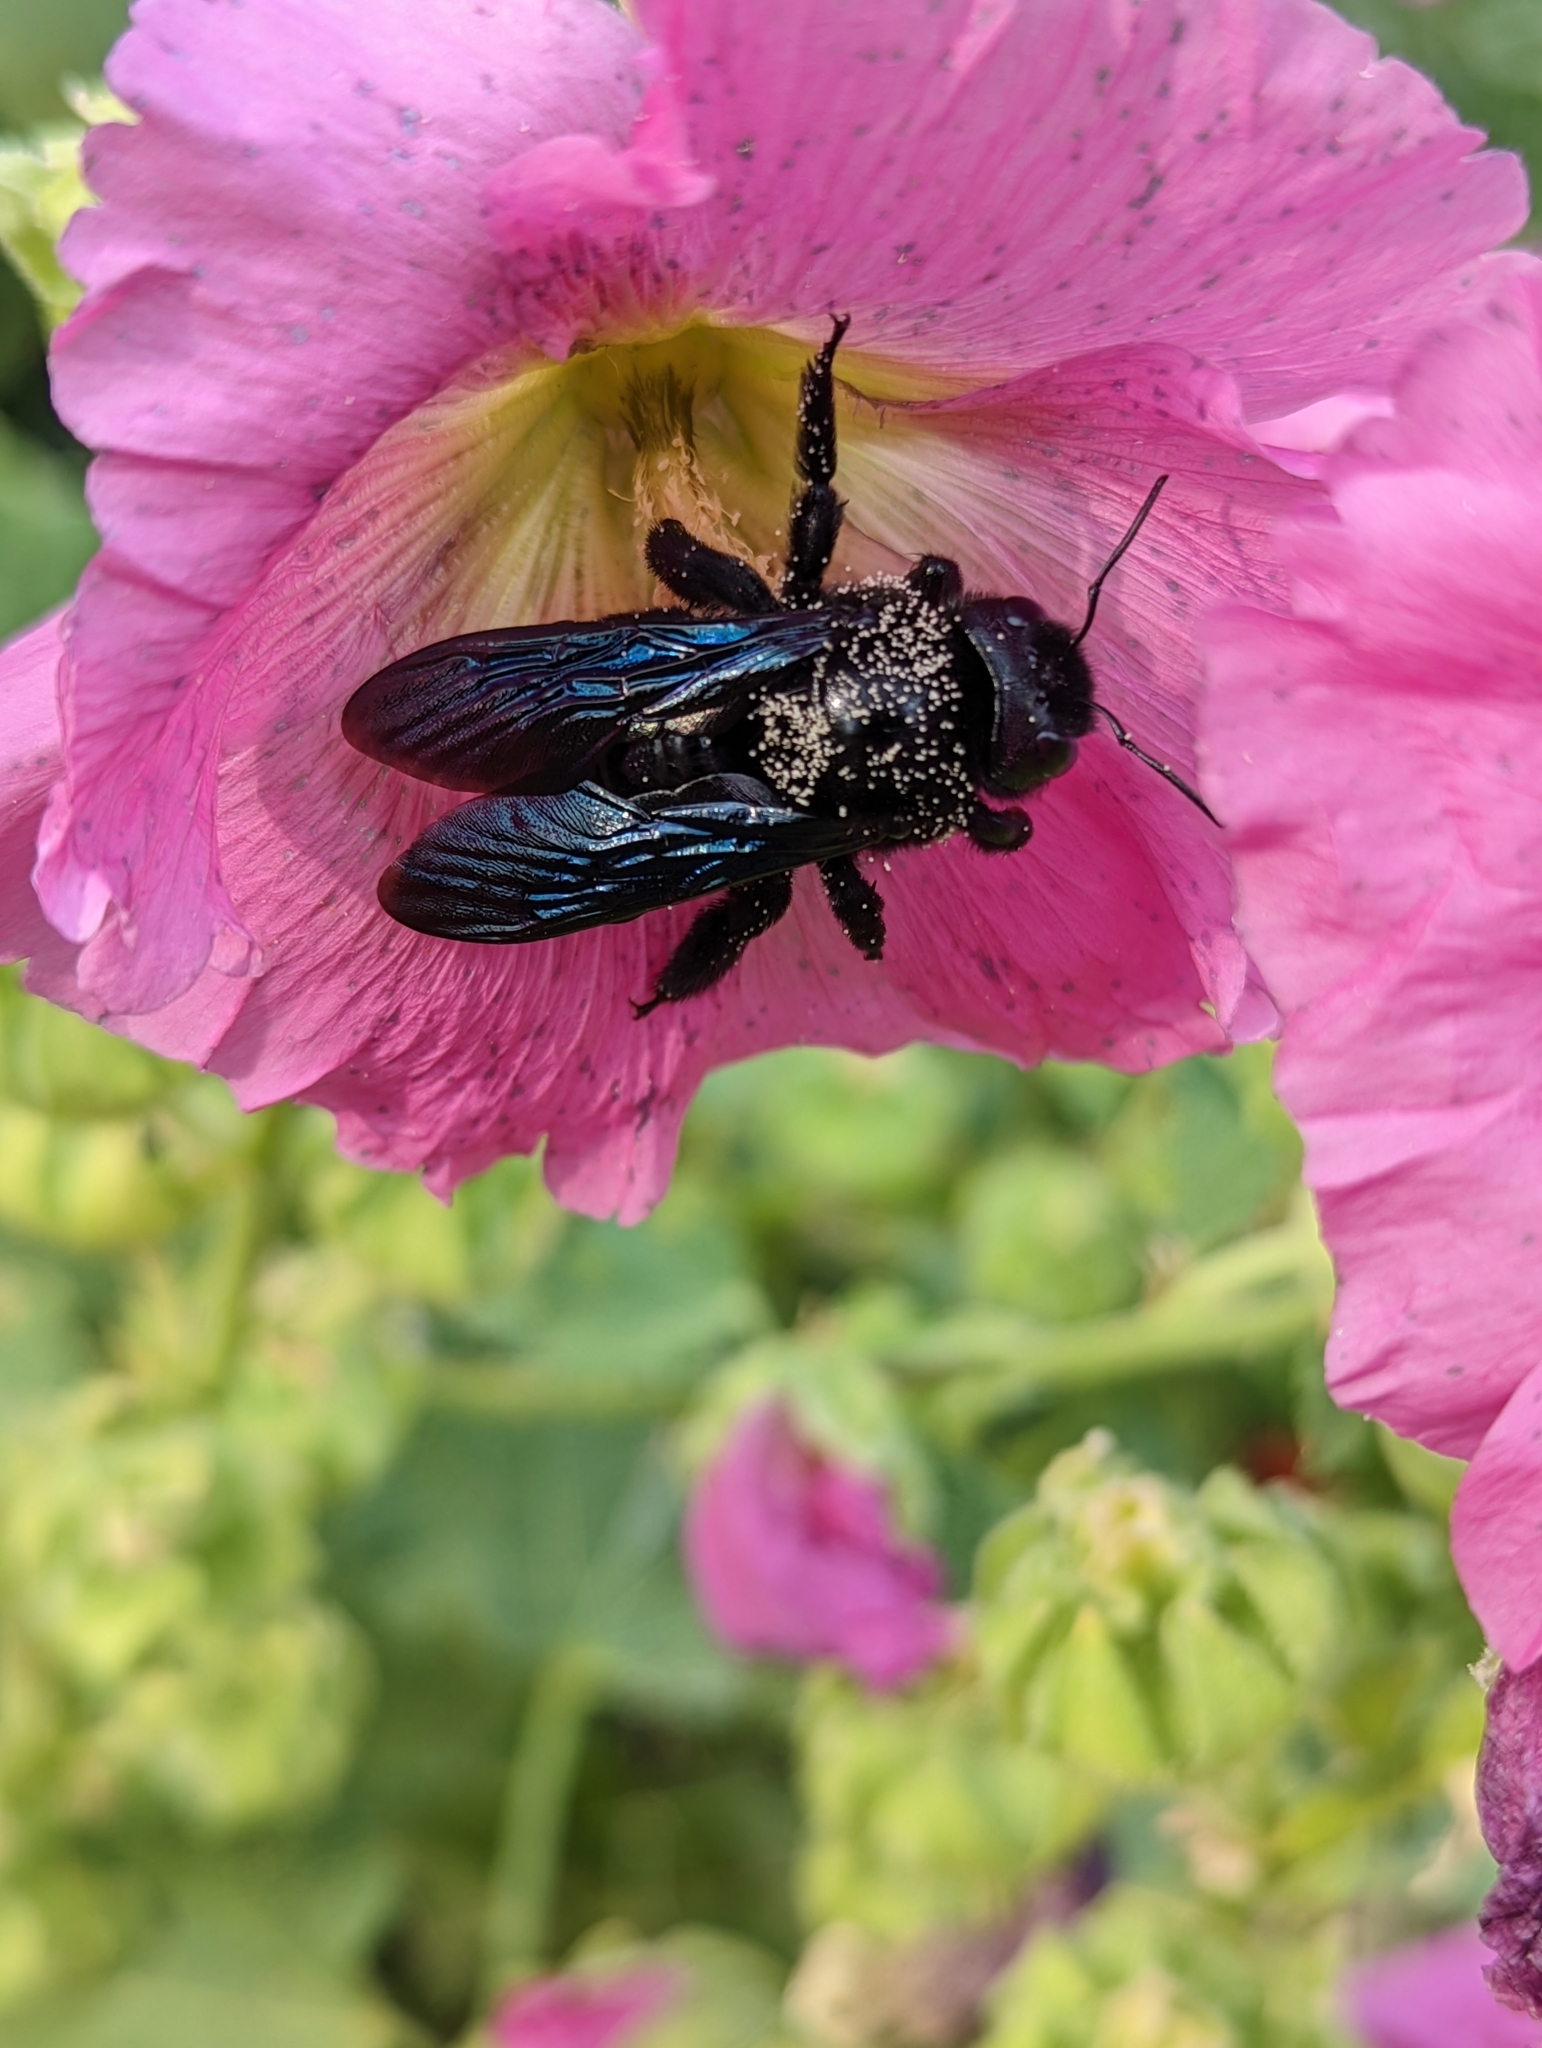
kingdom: Animalia
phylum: Arthropoda
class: Insecta
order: Hymenoptera
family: Apidae
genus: Xylocopa
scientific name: Xylocopa violacea
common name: Violet carpenter bee
